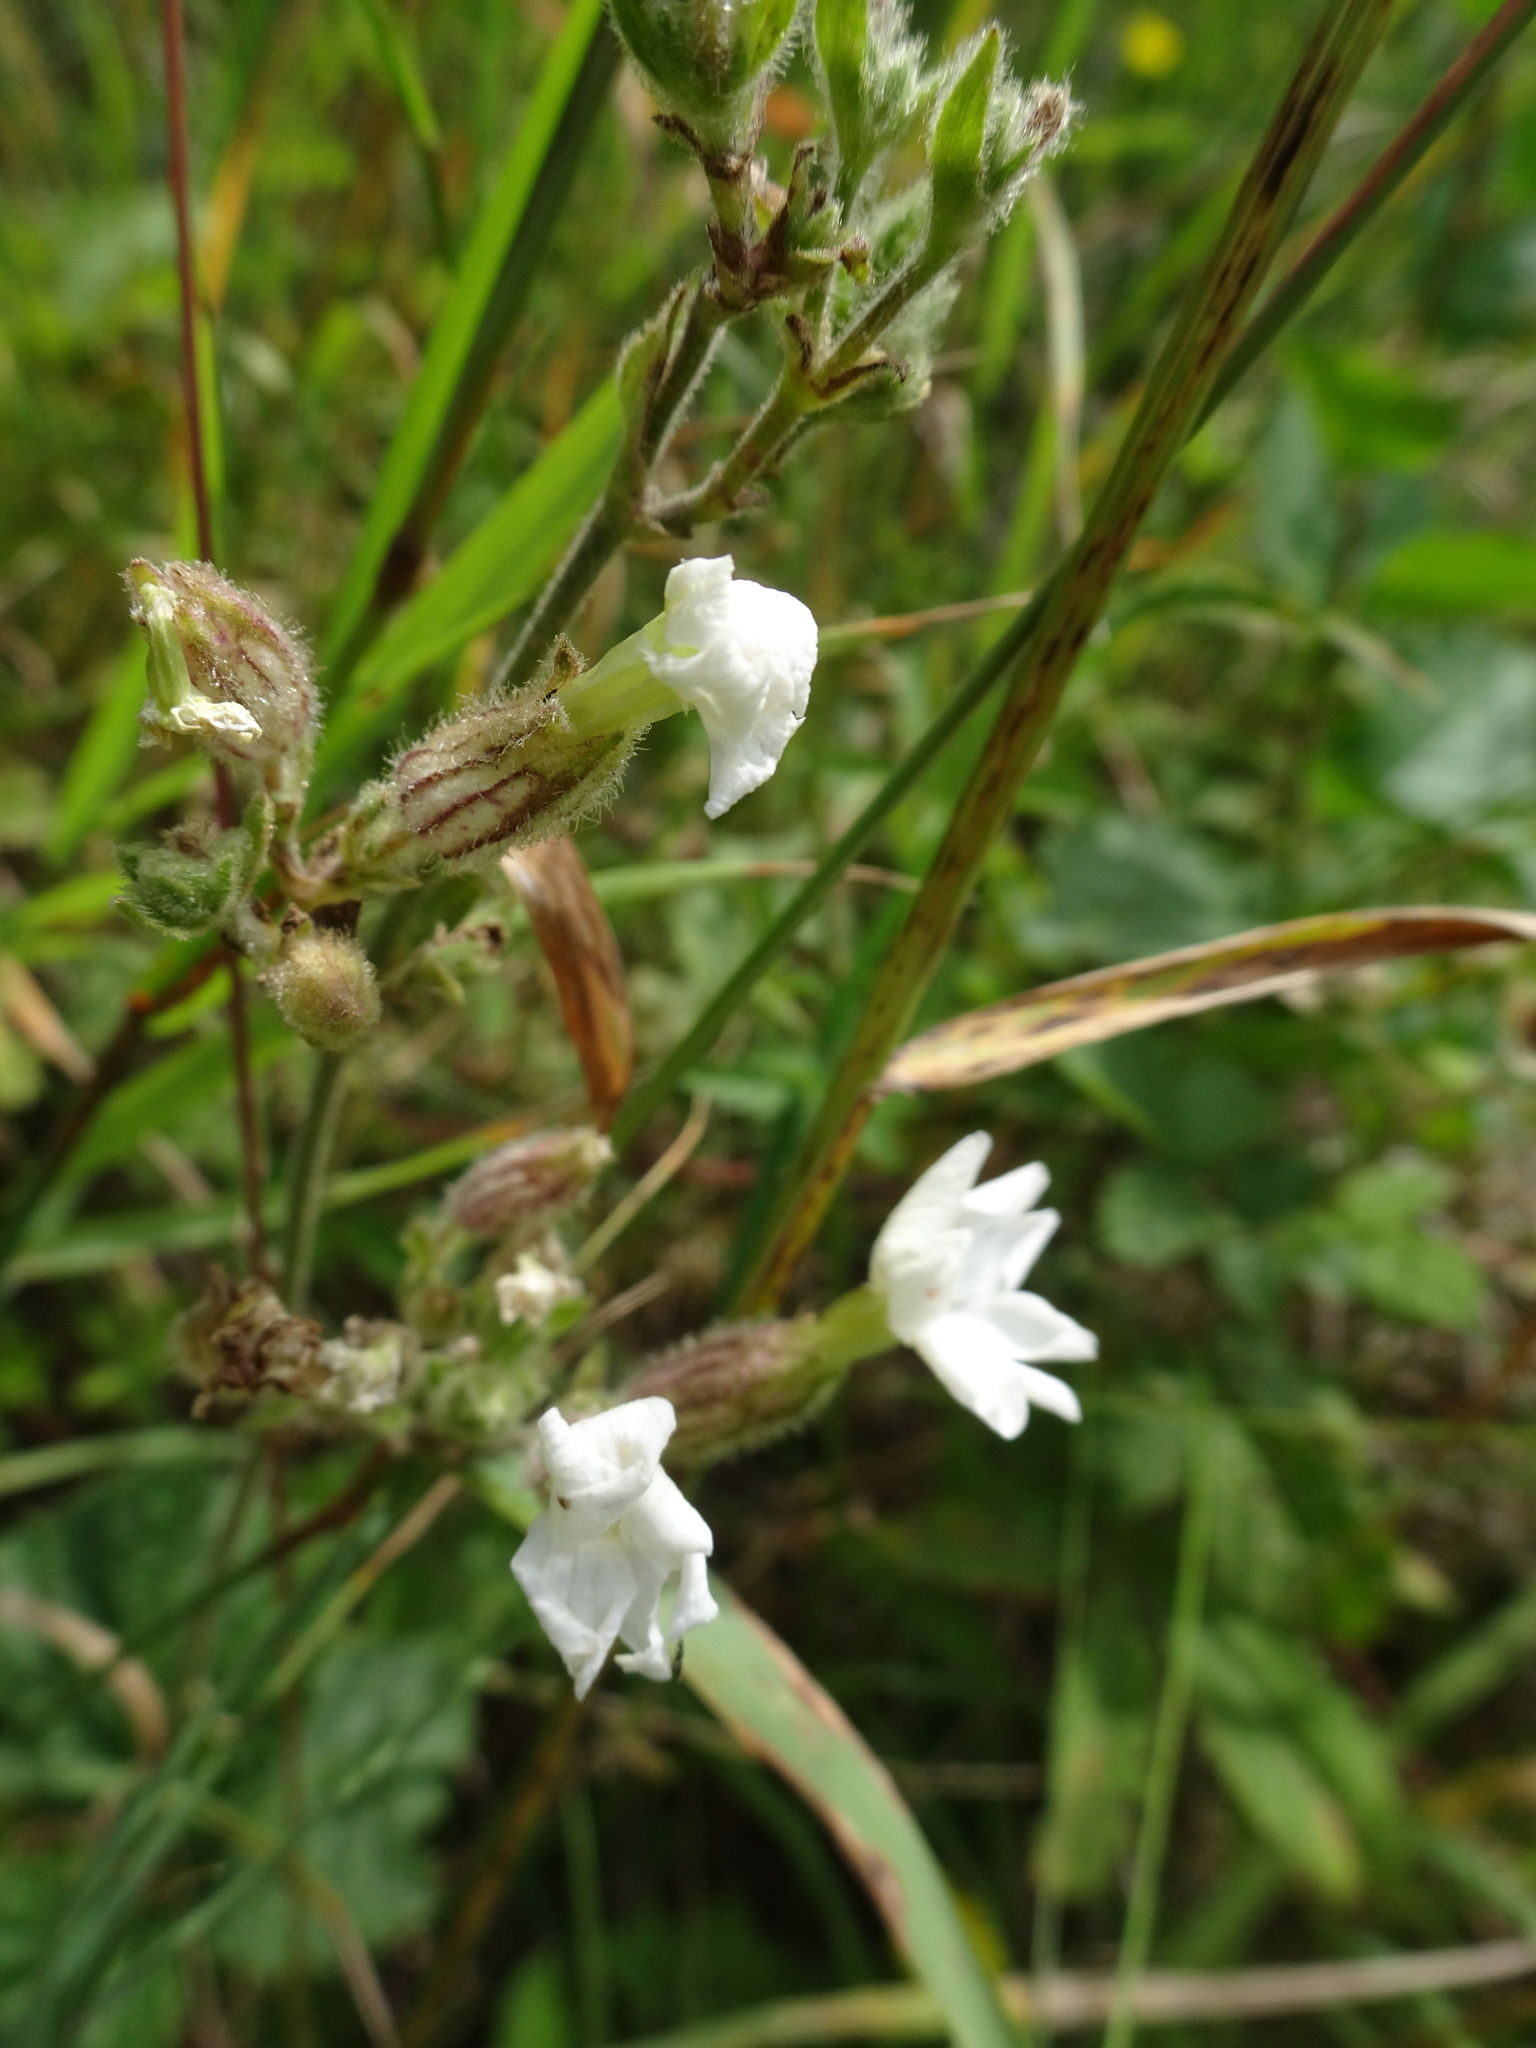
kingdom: Plantae
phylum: Tracheophyta
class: Magnoliopsida
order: Caryophyllales
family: Caryophyllaceae
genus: Silene
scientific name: Silene latifolia
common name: White campion
